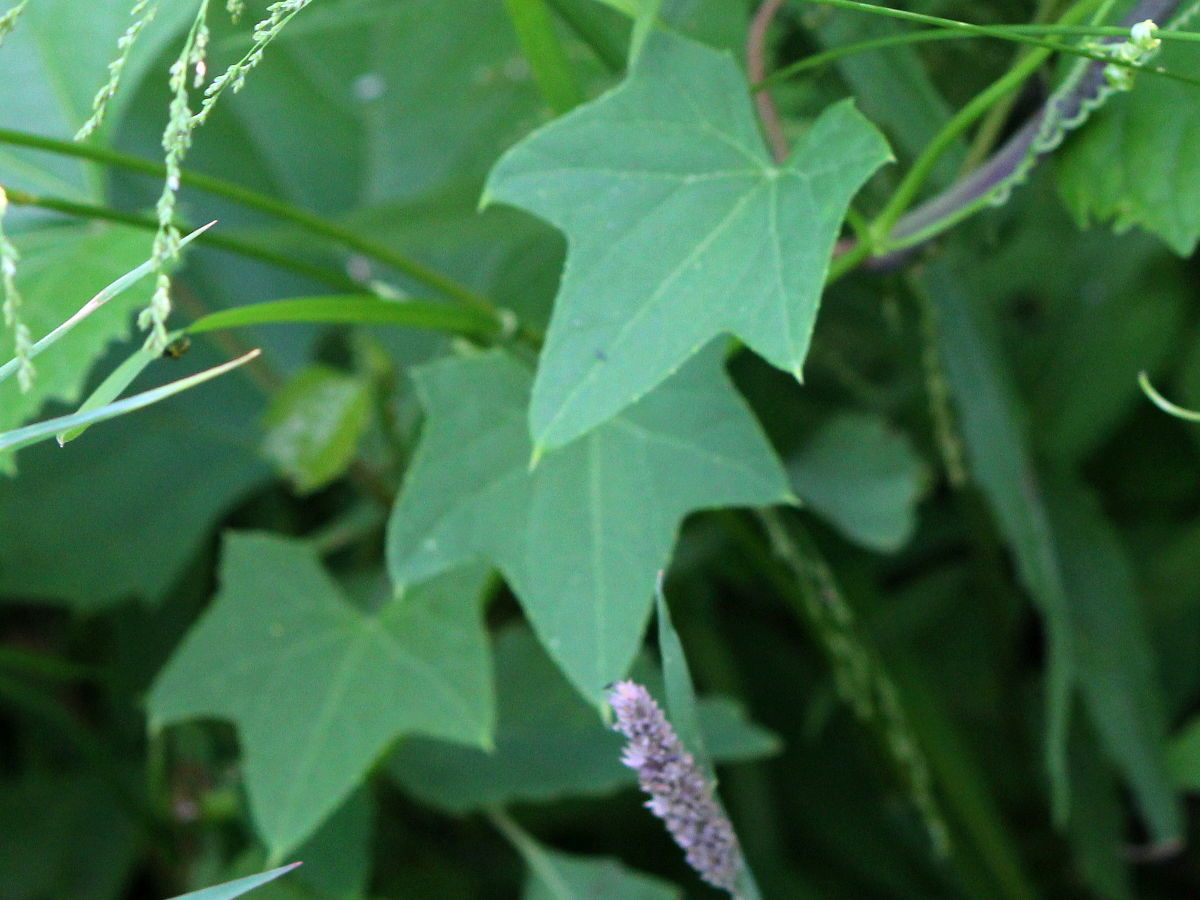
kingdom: Plantae
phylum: Tracheophyta
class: Magnoliopsida
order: Cucurbitales
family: Cucurbitaceae
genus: Echinocystis
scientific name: Echinocystis lobata
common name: Wild cucumber
